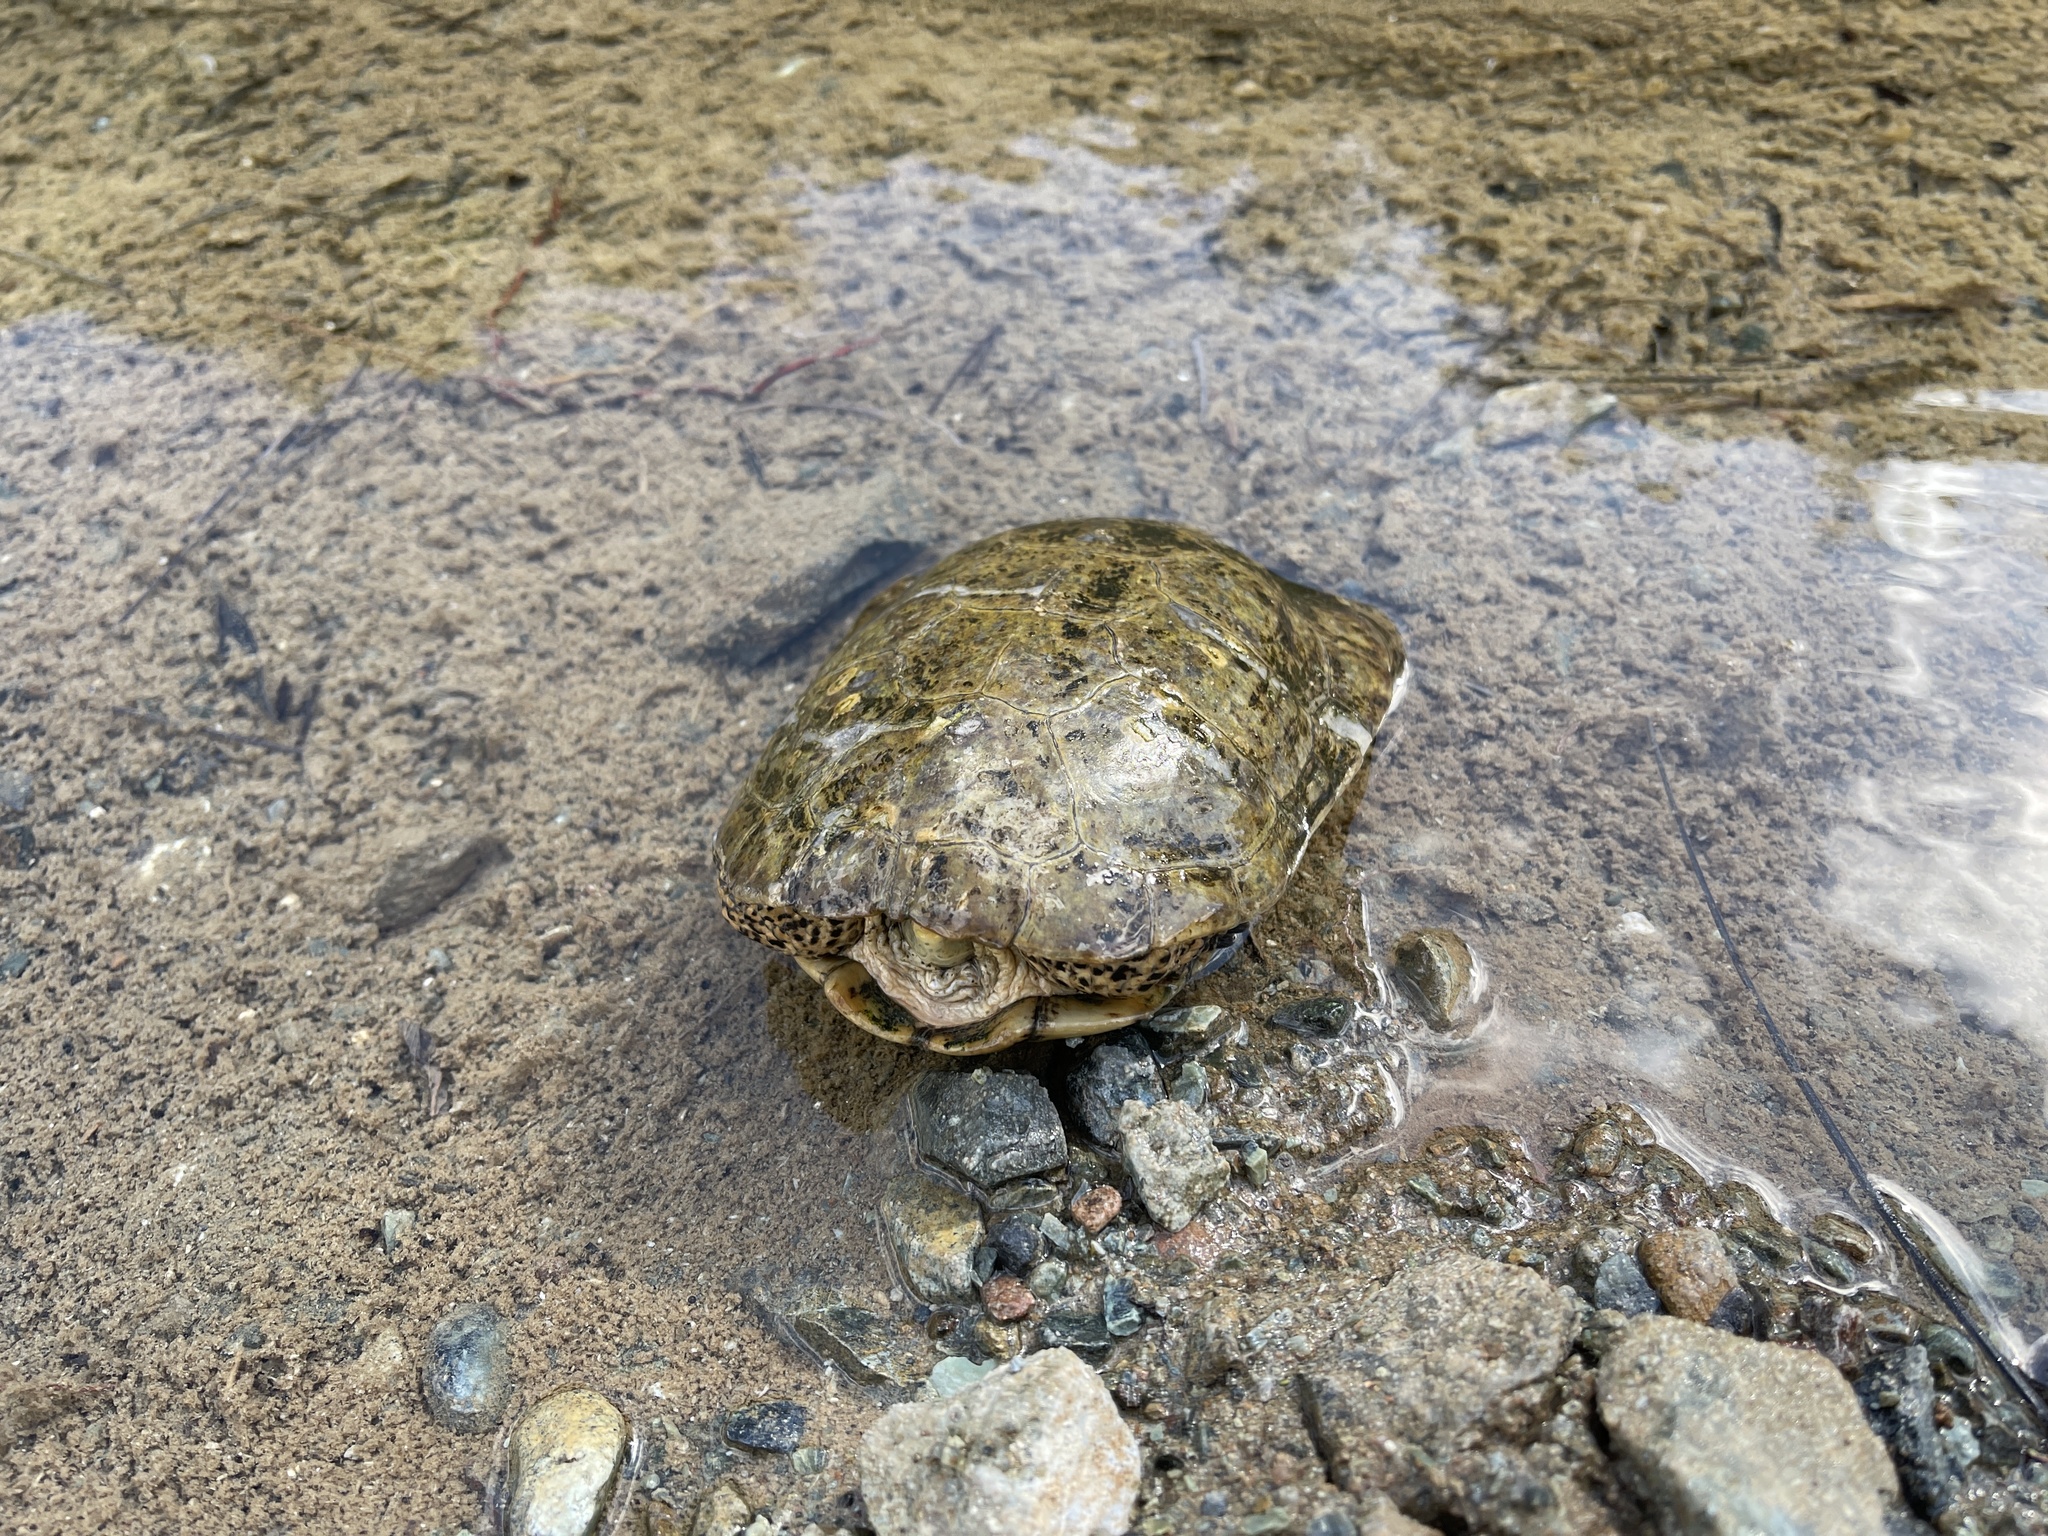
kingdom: Animalia
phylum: Chordata
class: Testudines
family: Emydidae
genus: Actinemys
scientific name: Actinemys marmorata
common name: Western pond turtle
